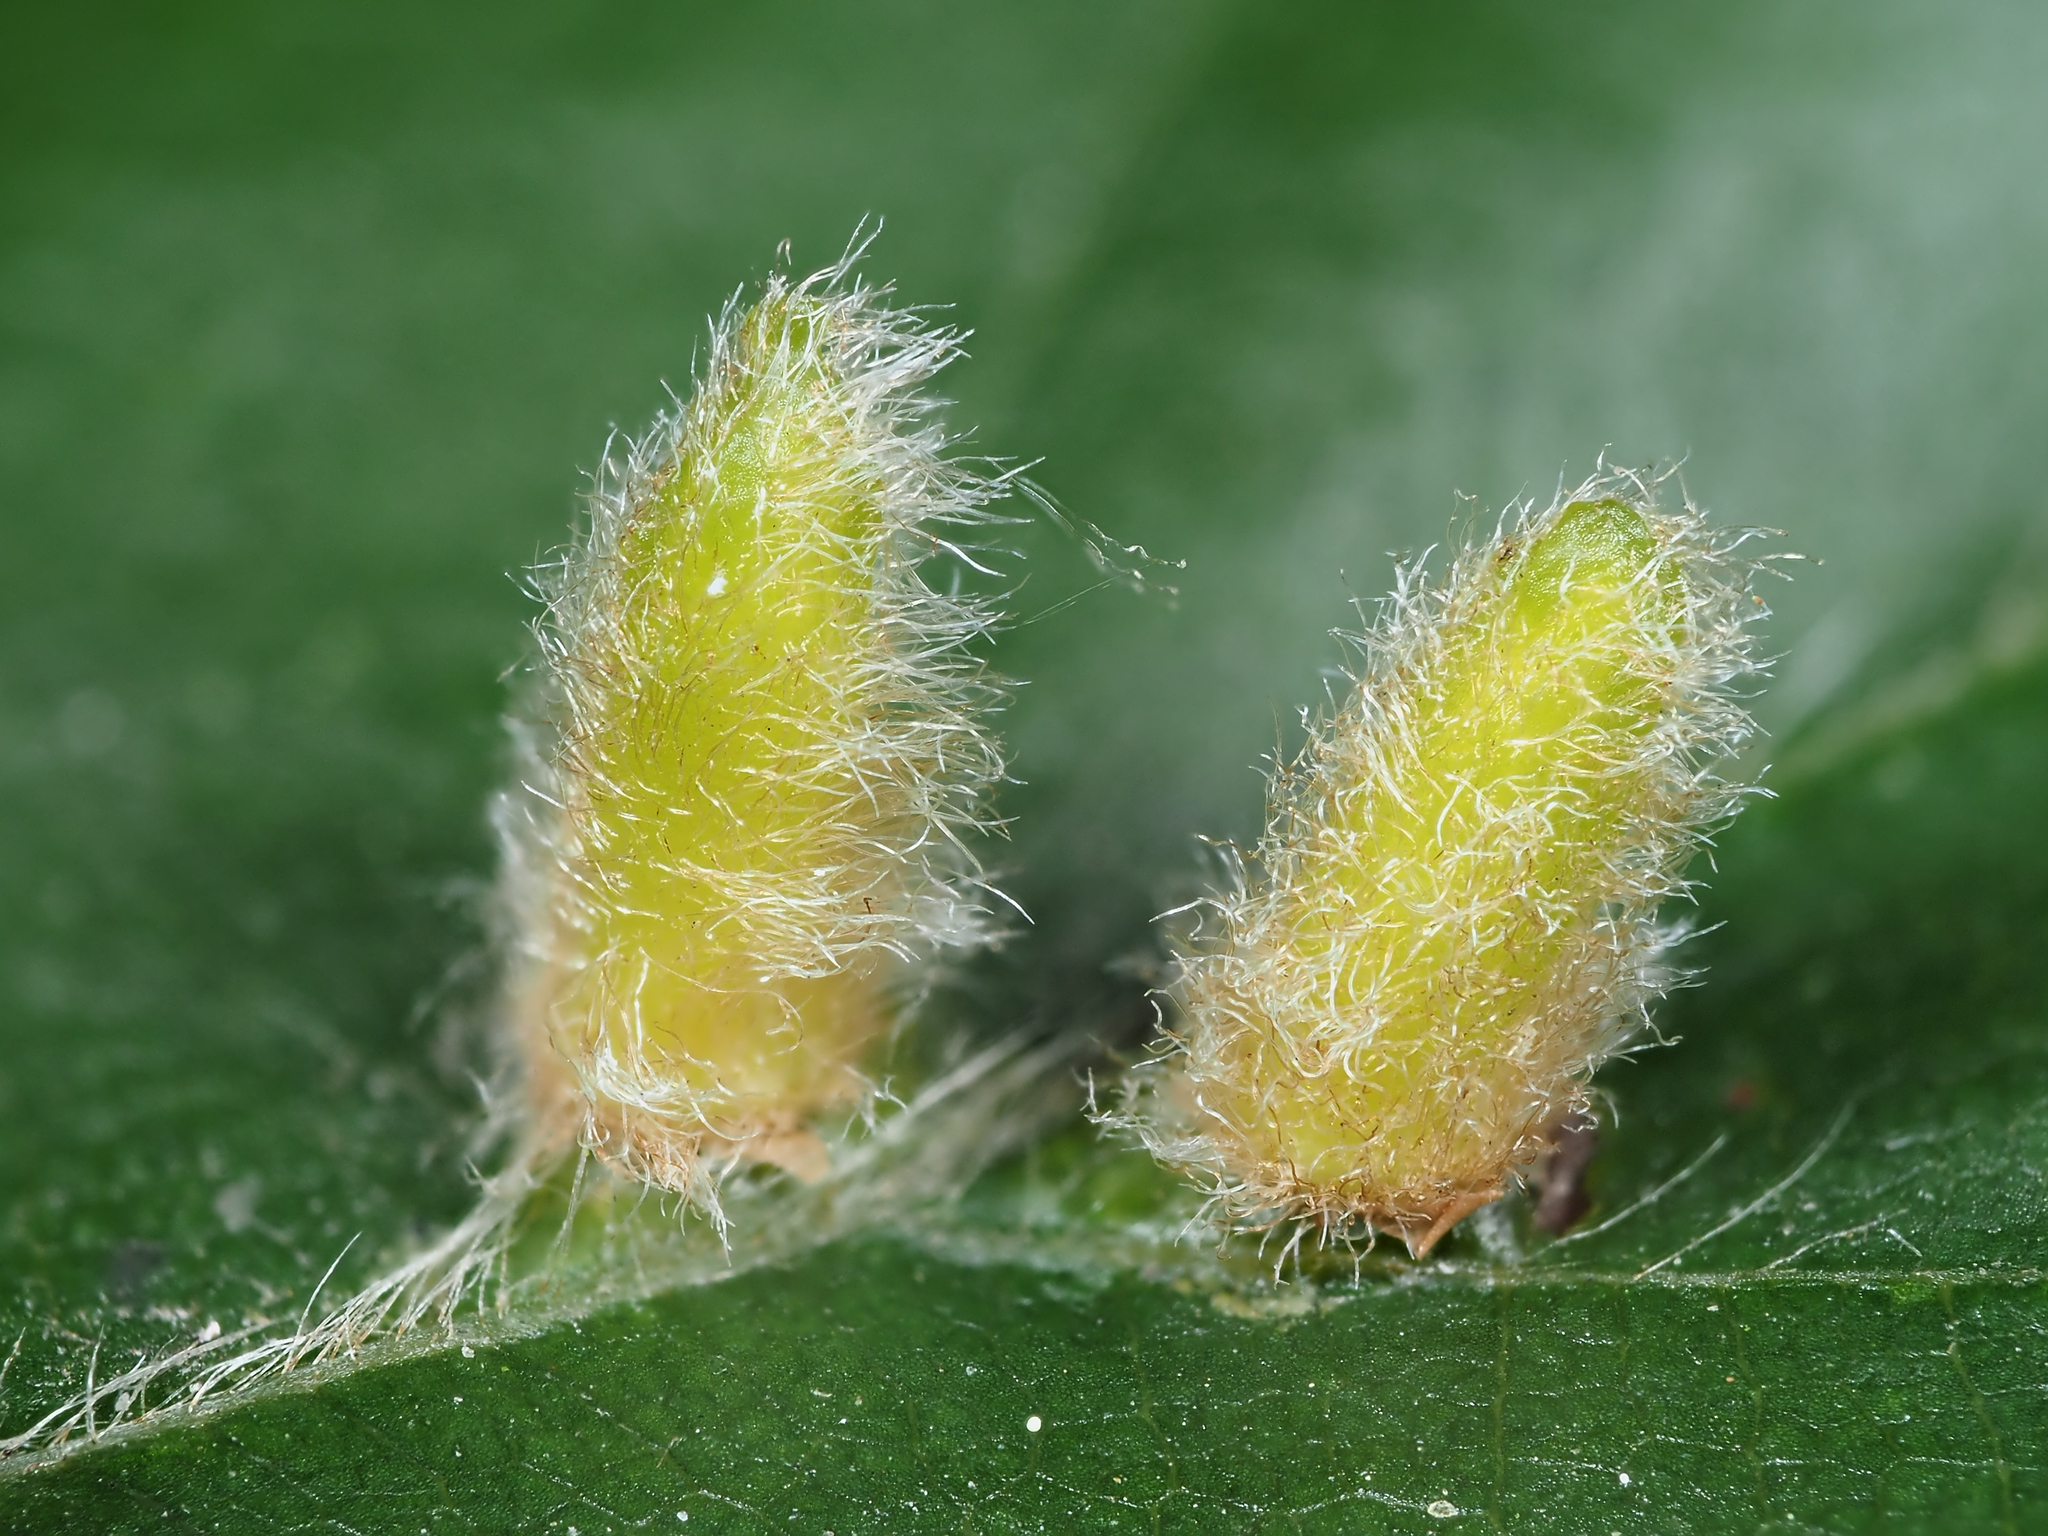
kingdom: Animalia
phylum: Arthropoda
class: Insecta
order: Diptera
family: Cecidomyiidae
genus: Hartigiola
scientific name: Hartigiola annulipes
